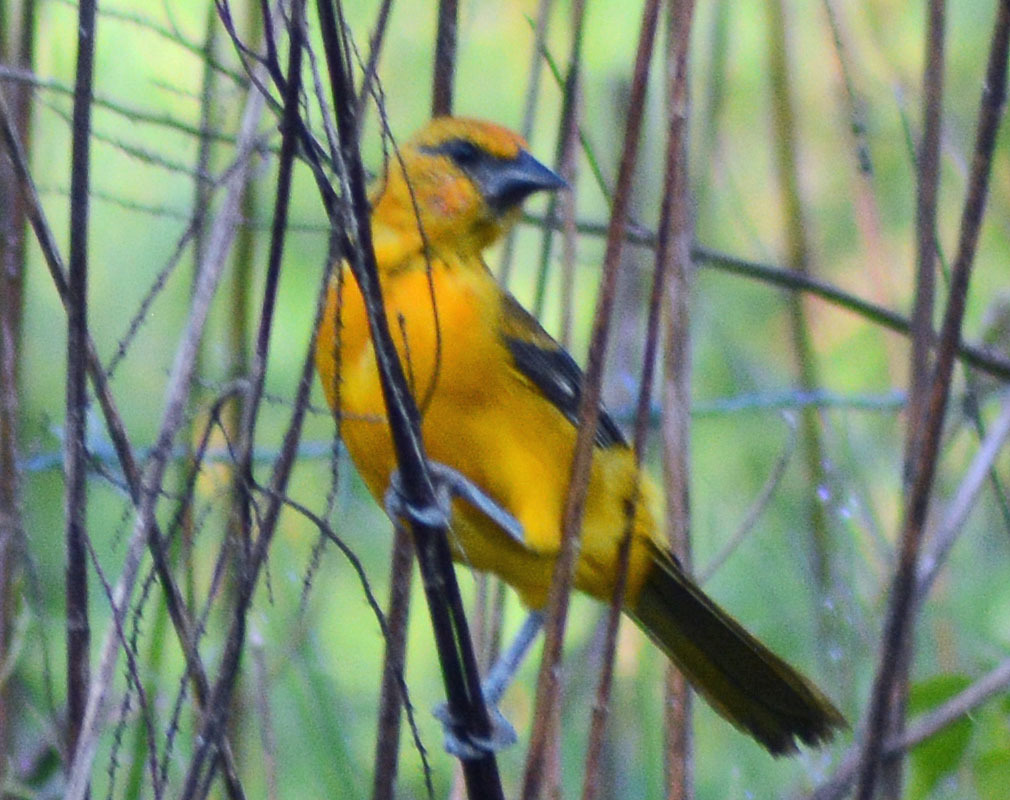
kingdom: Animalia
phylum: Chordata
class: Aves
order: Passeriformes
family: Icteridae
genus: Icterus
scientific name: Icterus gularis
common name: Altamira oriole
